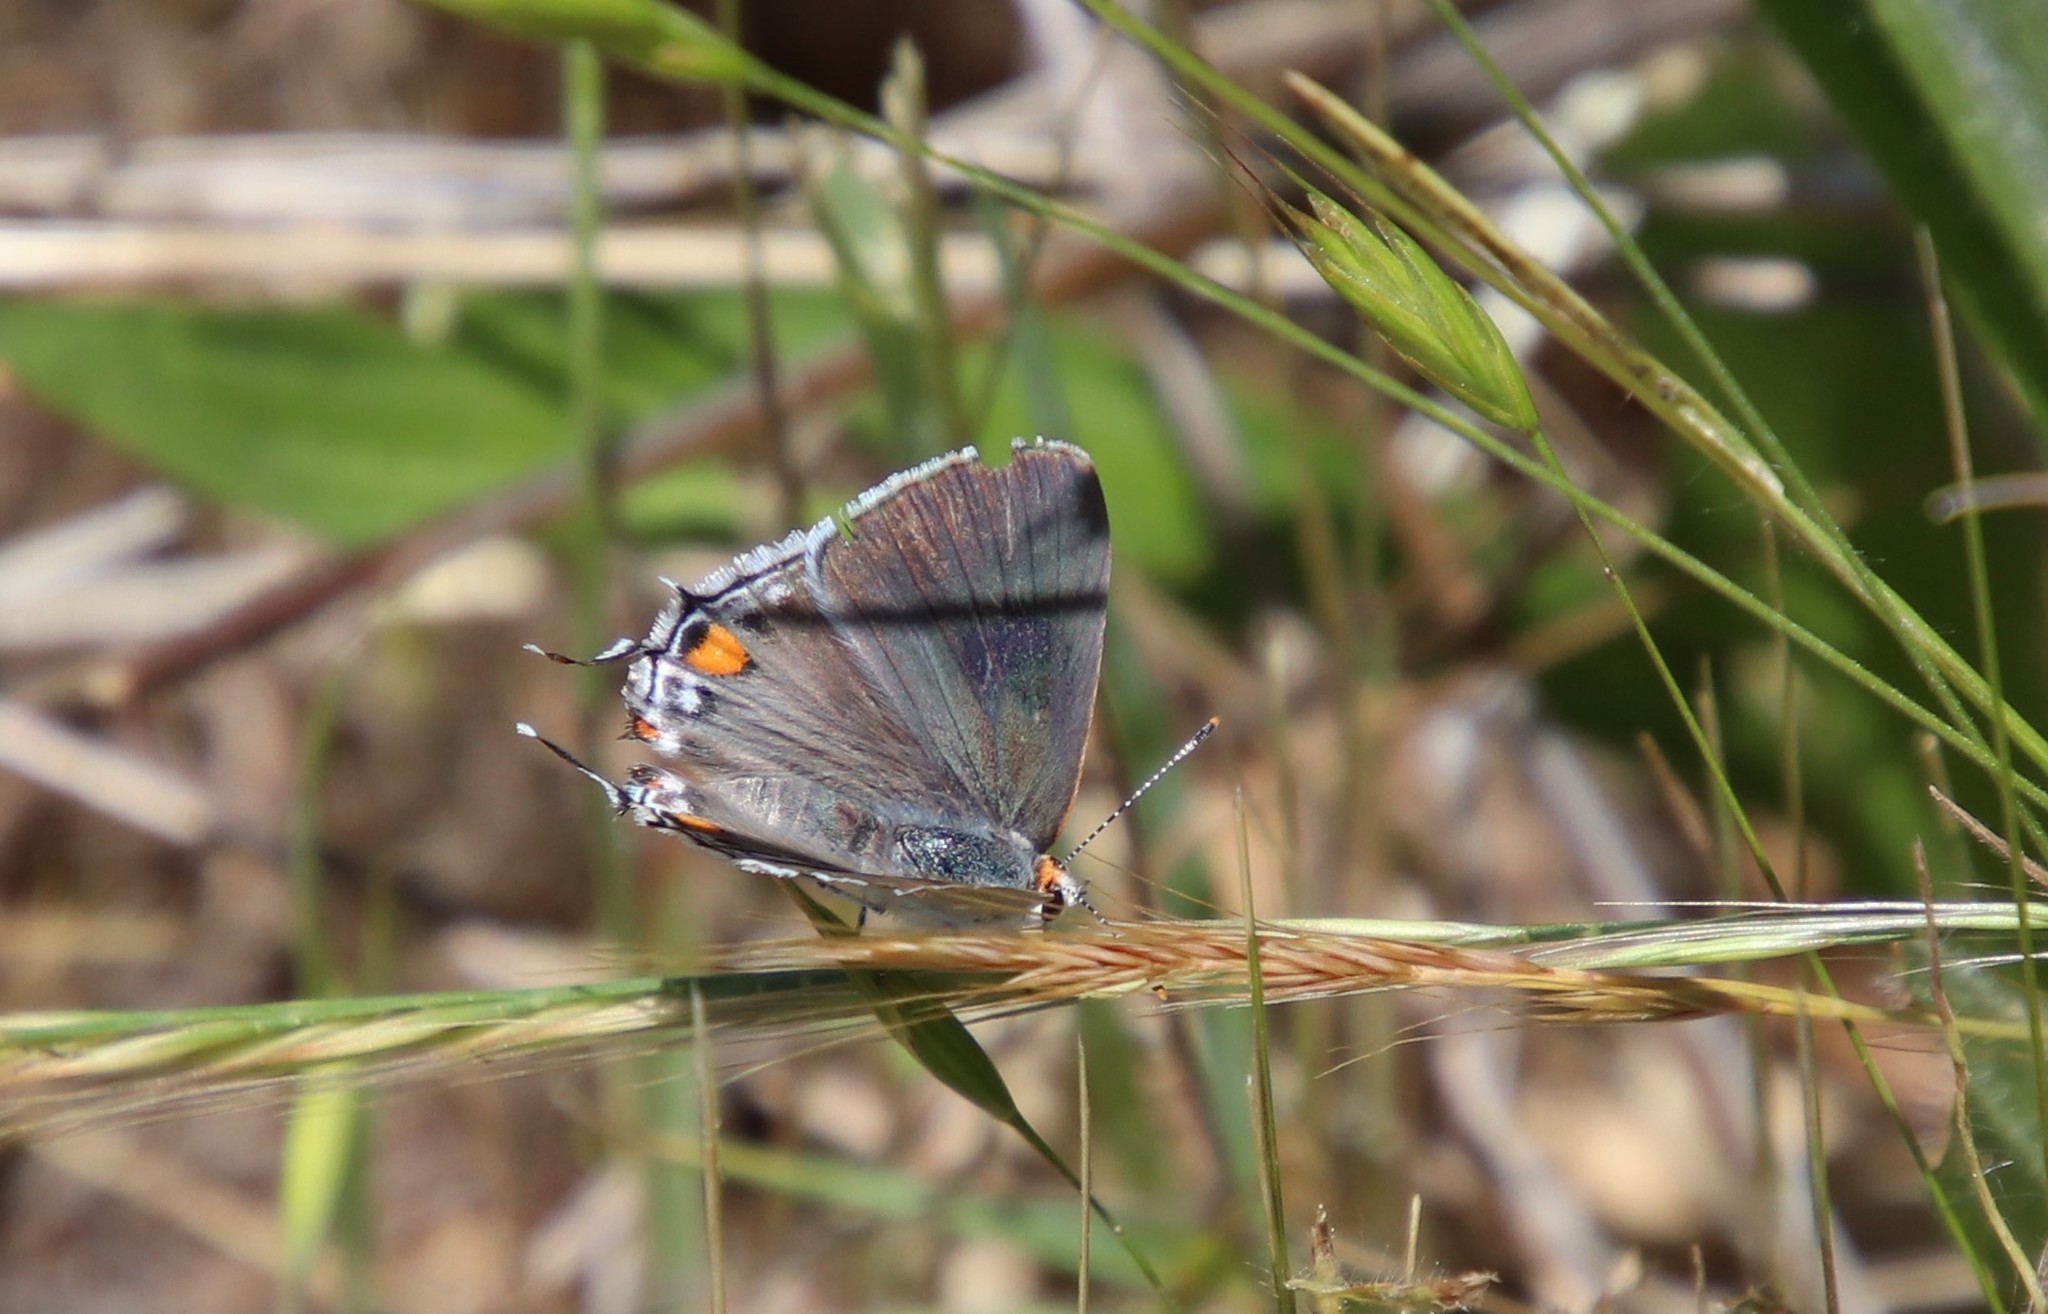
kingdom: Animalia
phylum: Arthropoda
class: Insecta
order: Lepidoptera
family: Lycaenidae
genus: Strymon
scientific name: Strymon melinus
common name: Gray hairstreak
